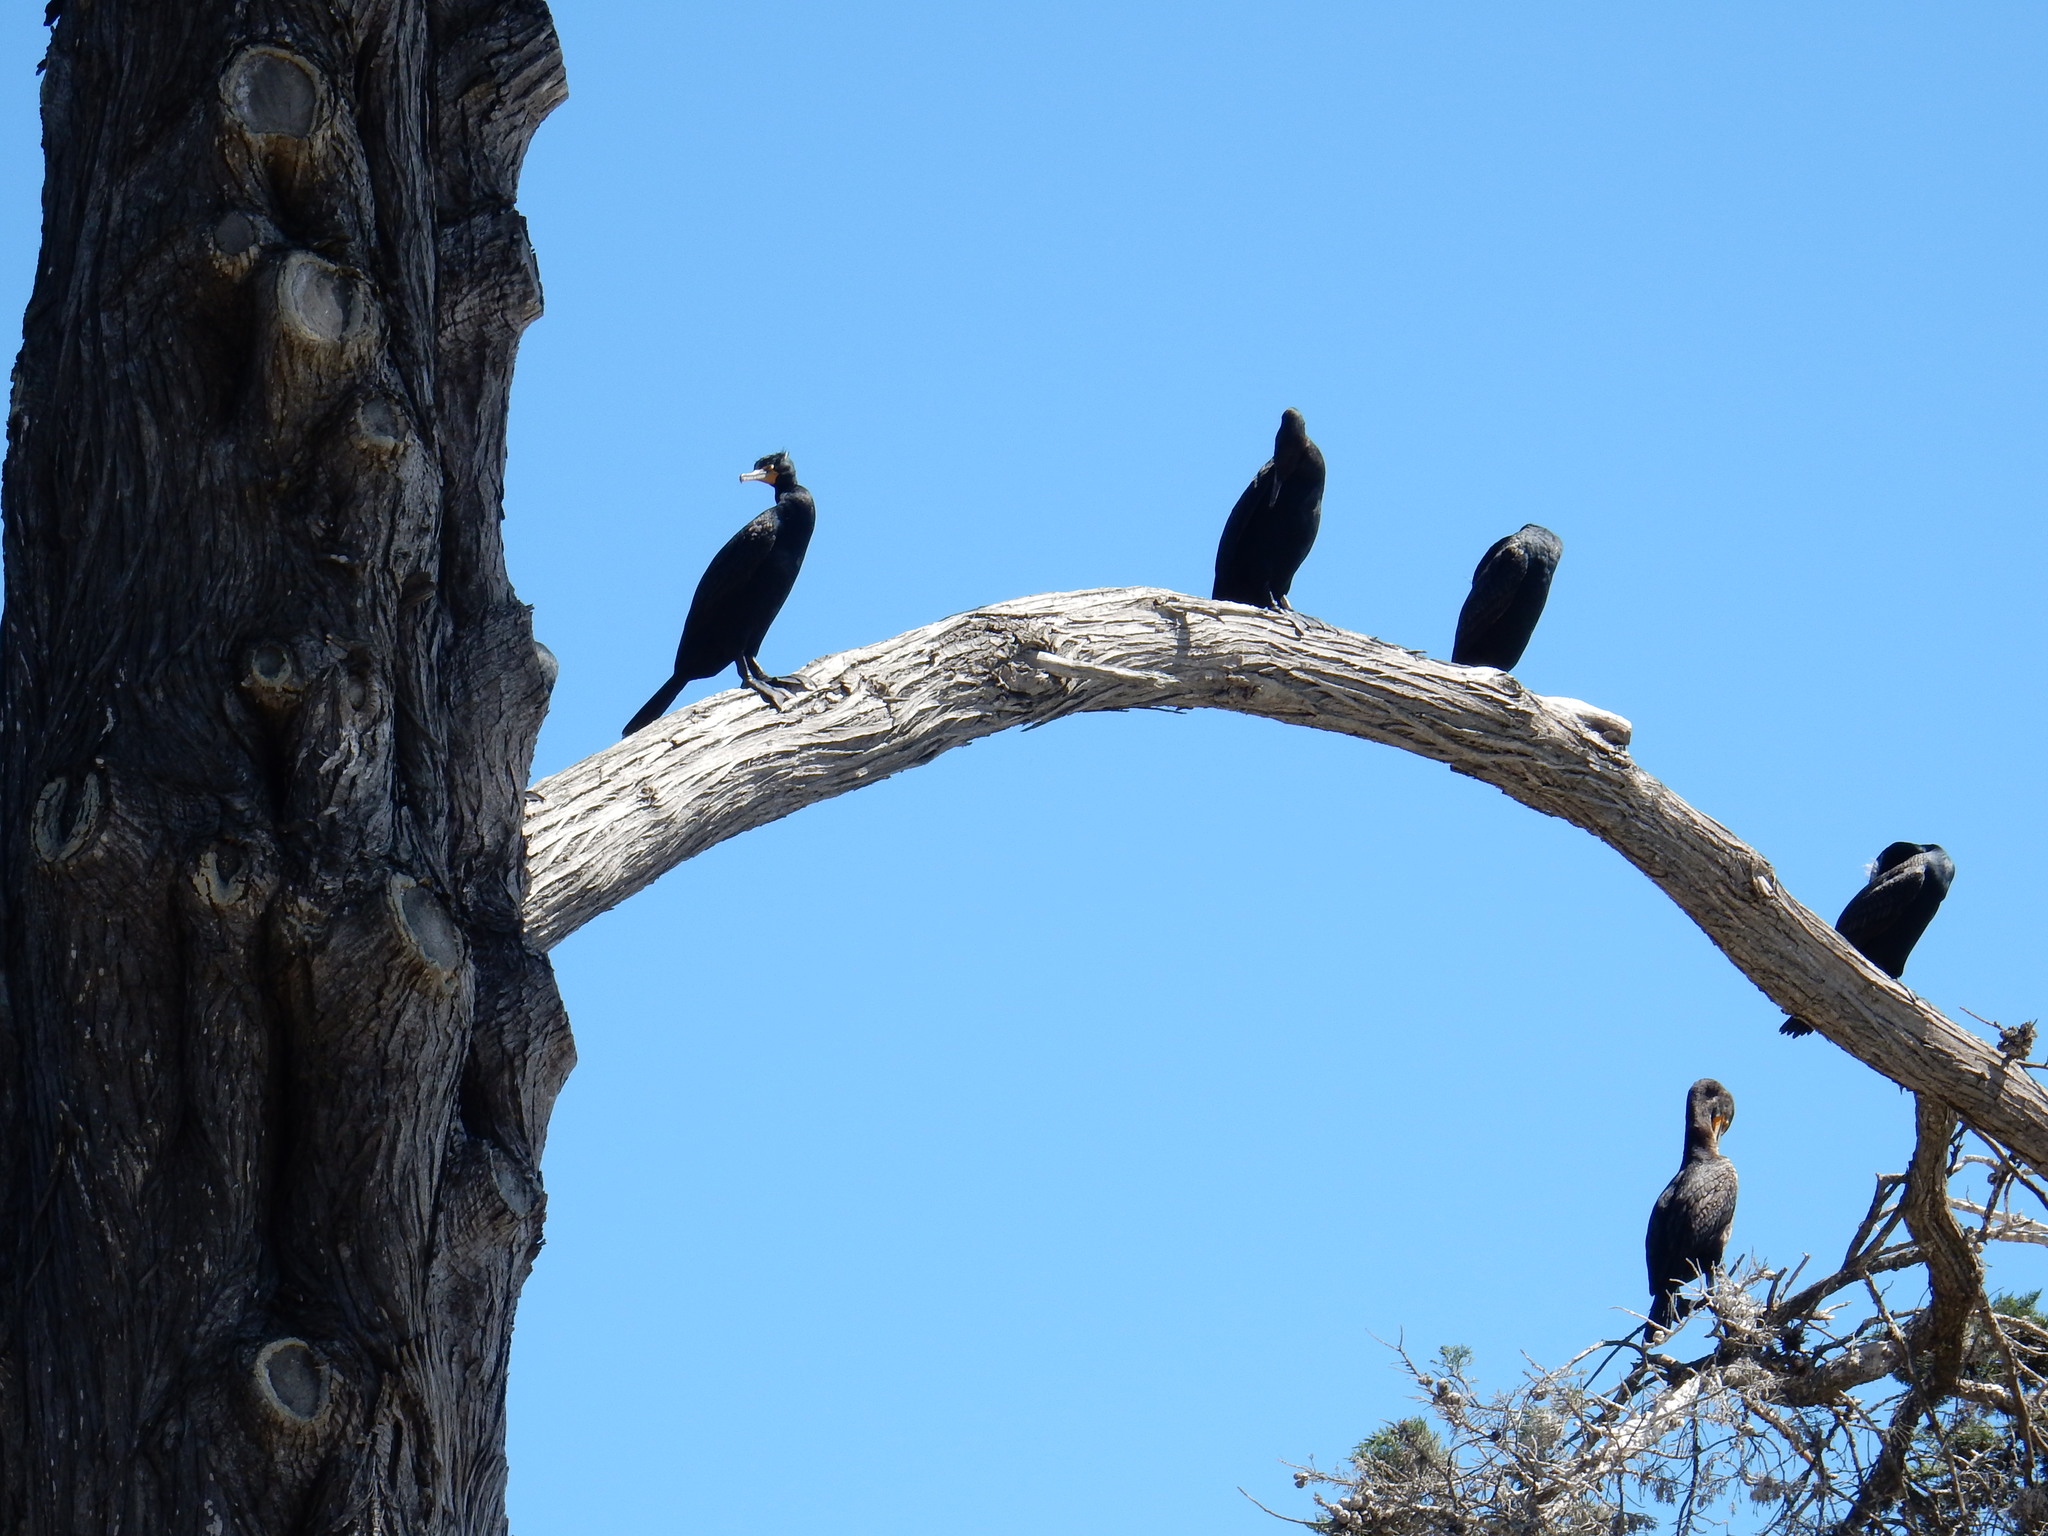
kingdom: Animalia
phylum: Chordata
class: Aves
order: Suliformes
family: Phalacrocoracidae
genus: Phalacrocorax
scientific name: Phalacrocorax auritus
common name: Double-crested cormorant
